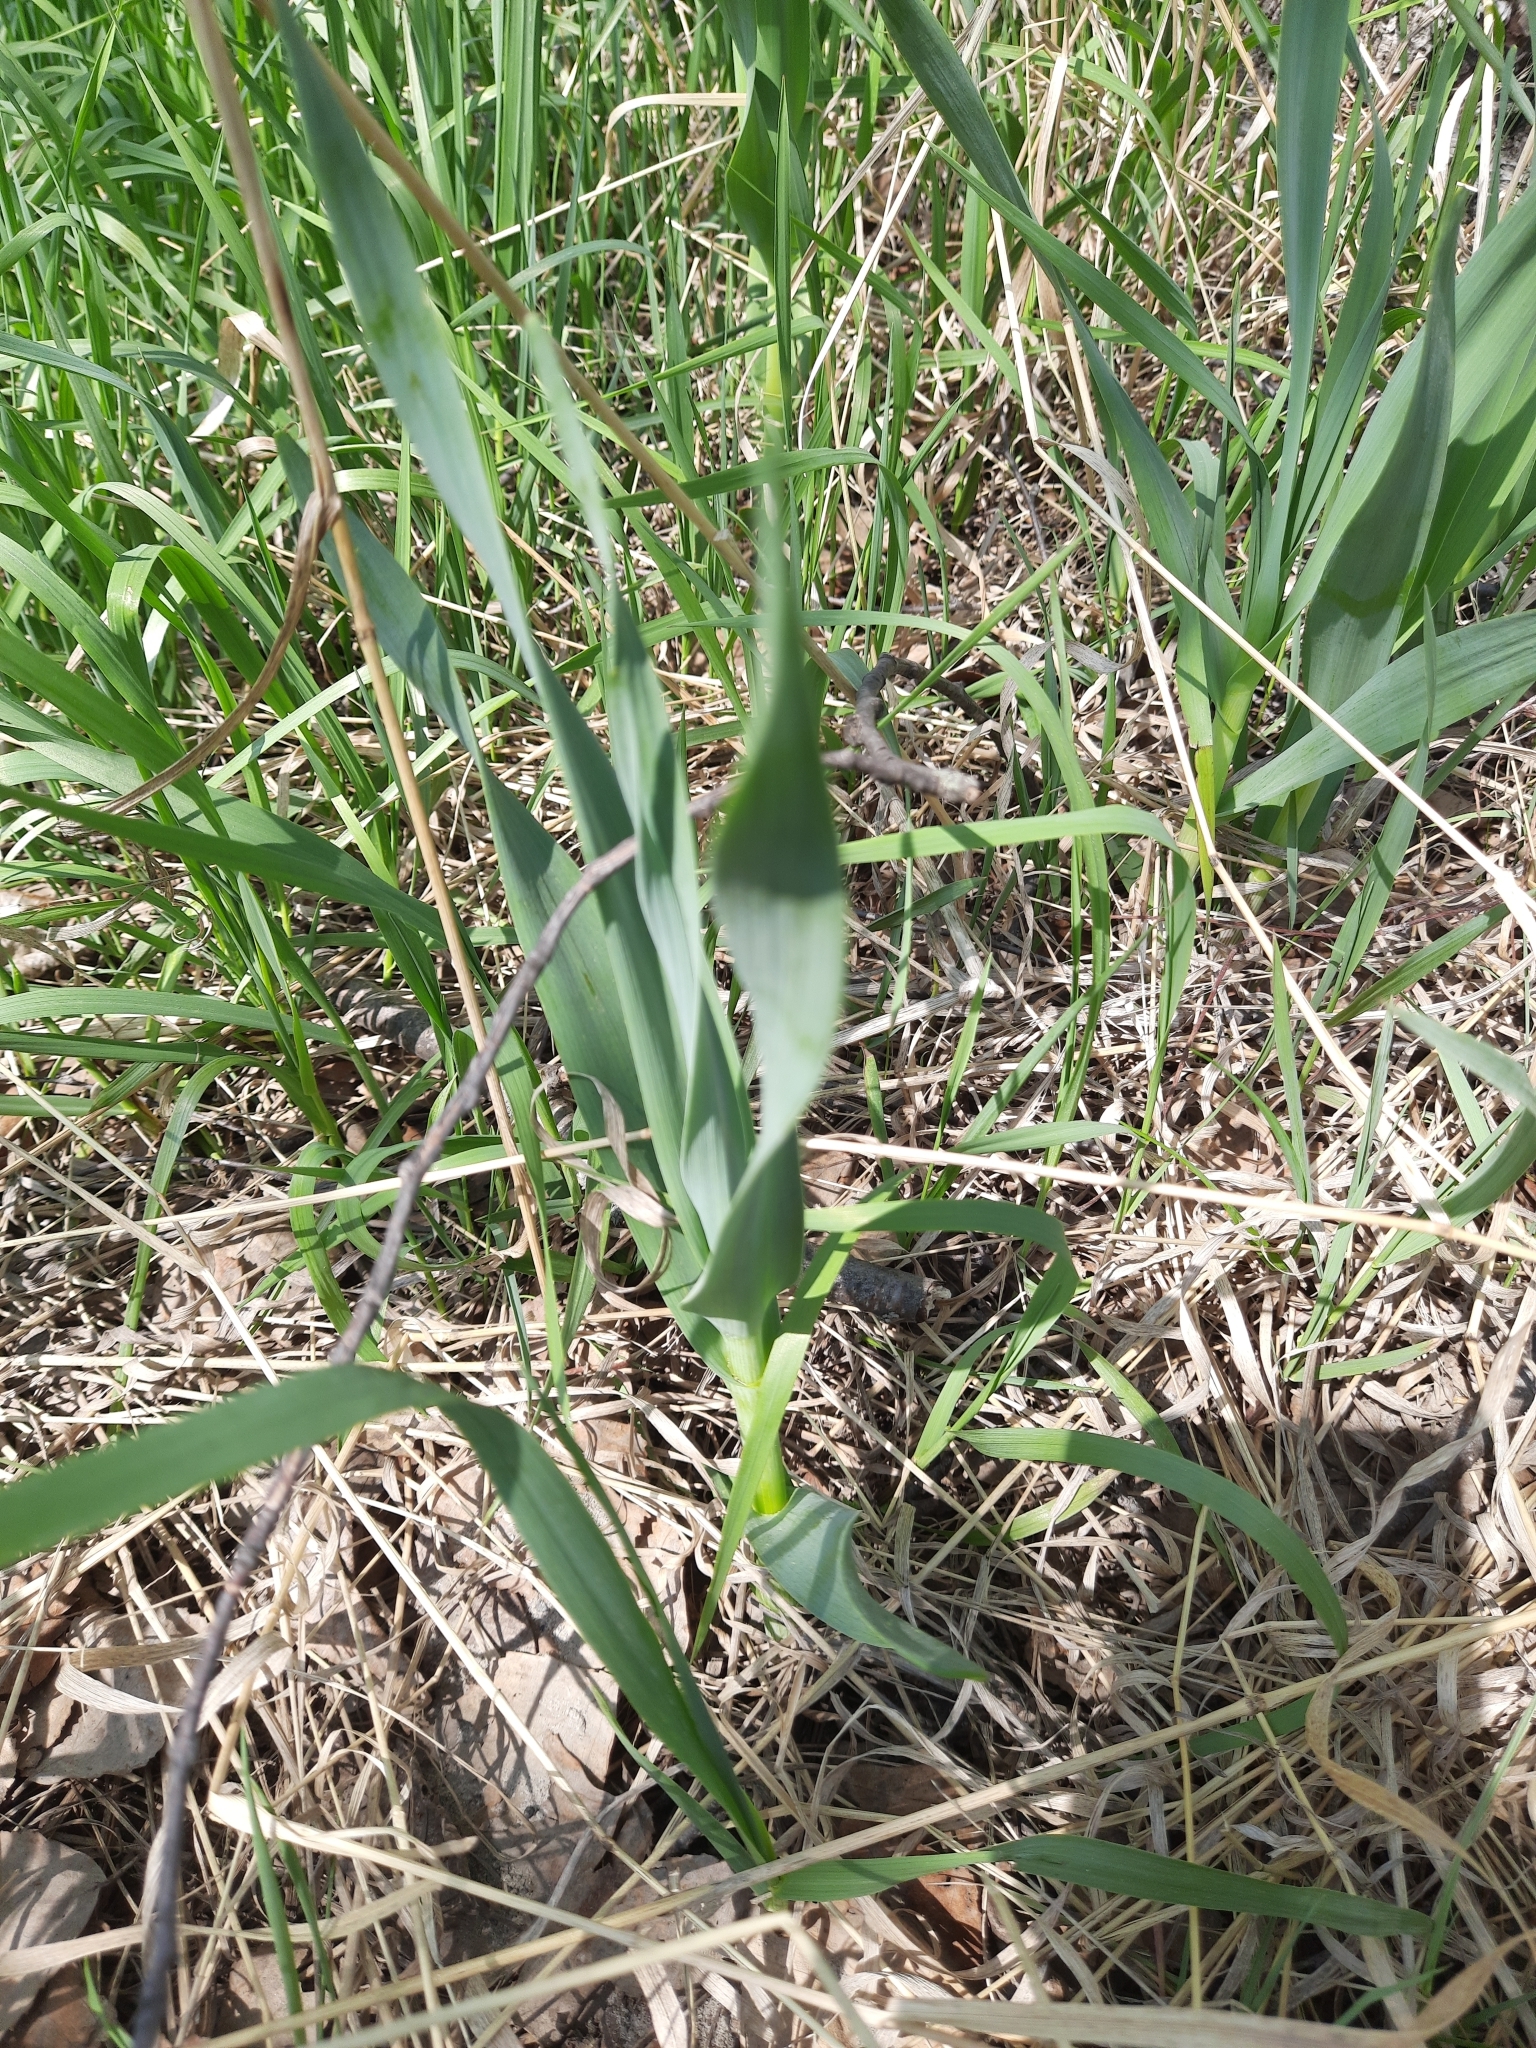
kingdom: Plantae
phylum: Tracheophyta
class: Liliopsida
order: Asparagales
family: Amaryllidaceae
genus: Allium
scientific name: Allium obliquum
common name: Oblique onion
